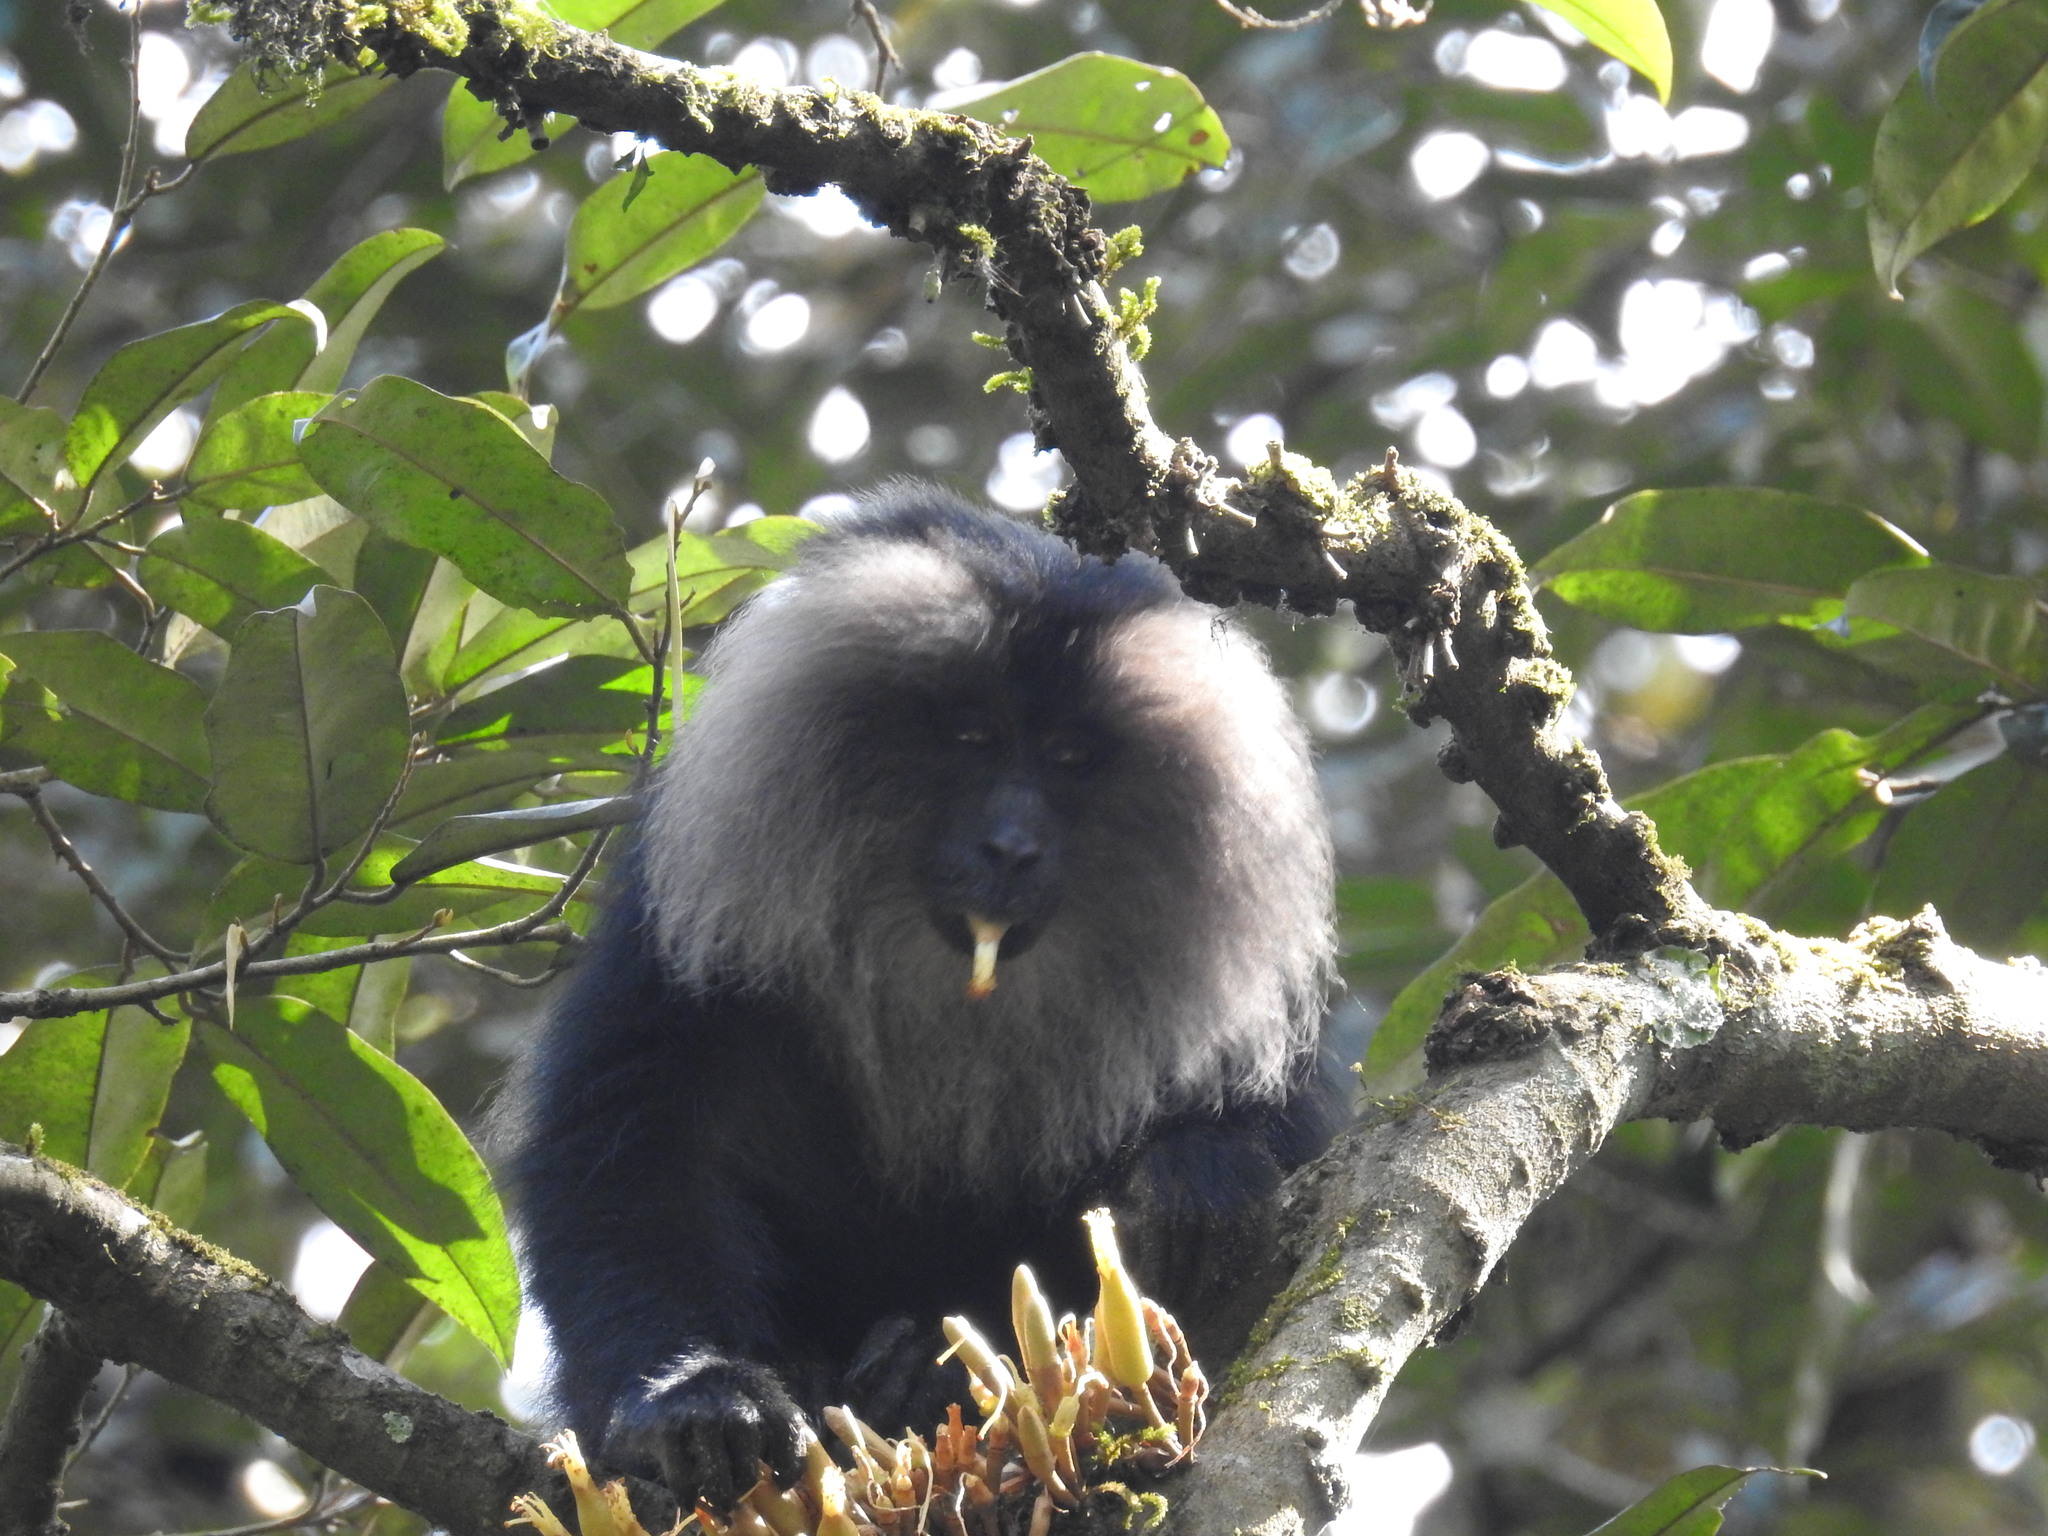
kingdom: Animalia
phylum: Chordata
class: Mammalia
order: Primates
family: Cercopithecidae
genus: Macaca
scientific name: Macaca silenus
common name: Lion-tailed macaque
